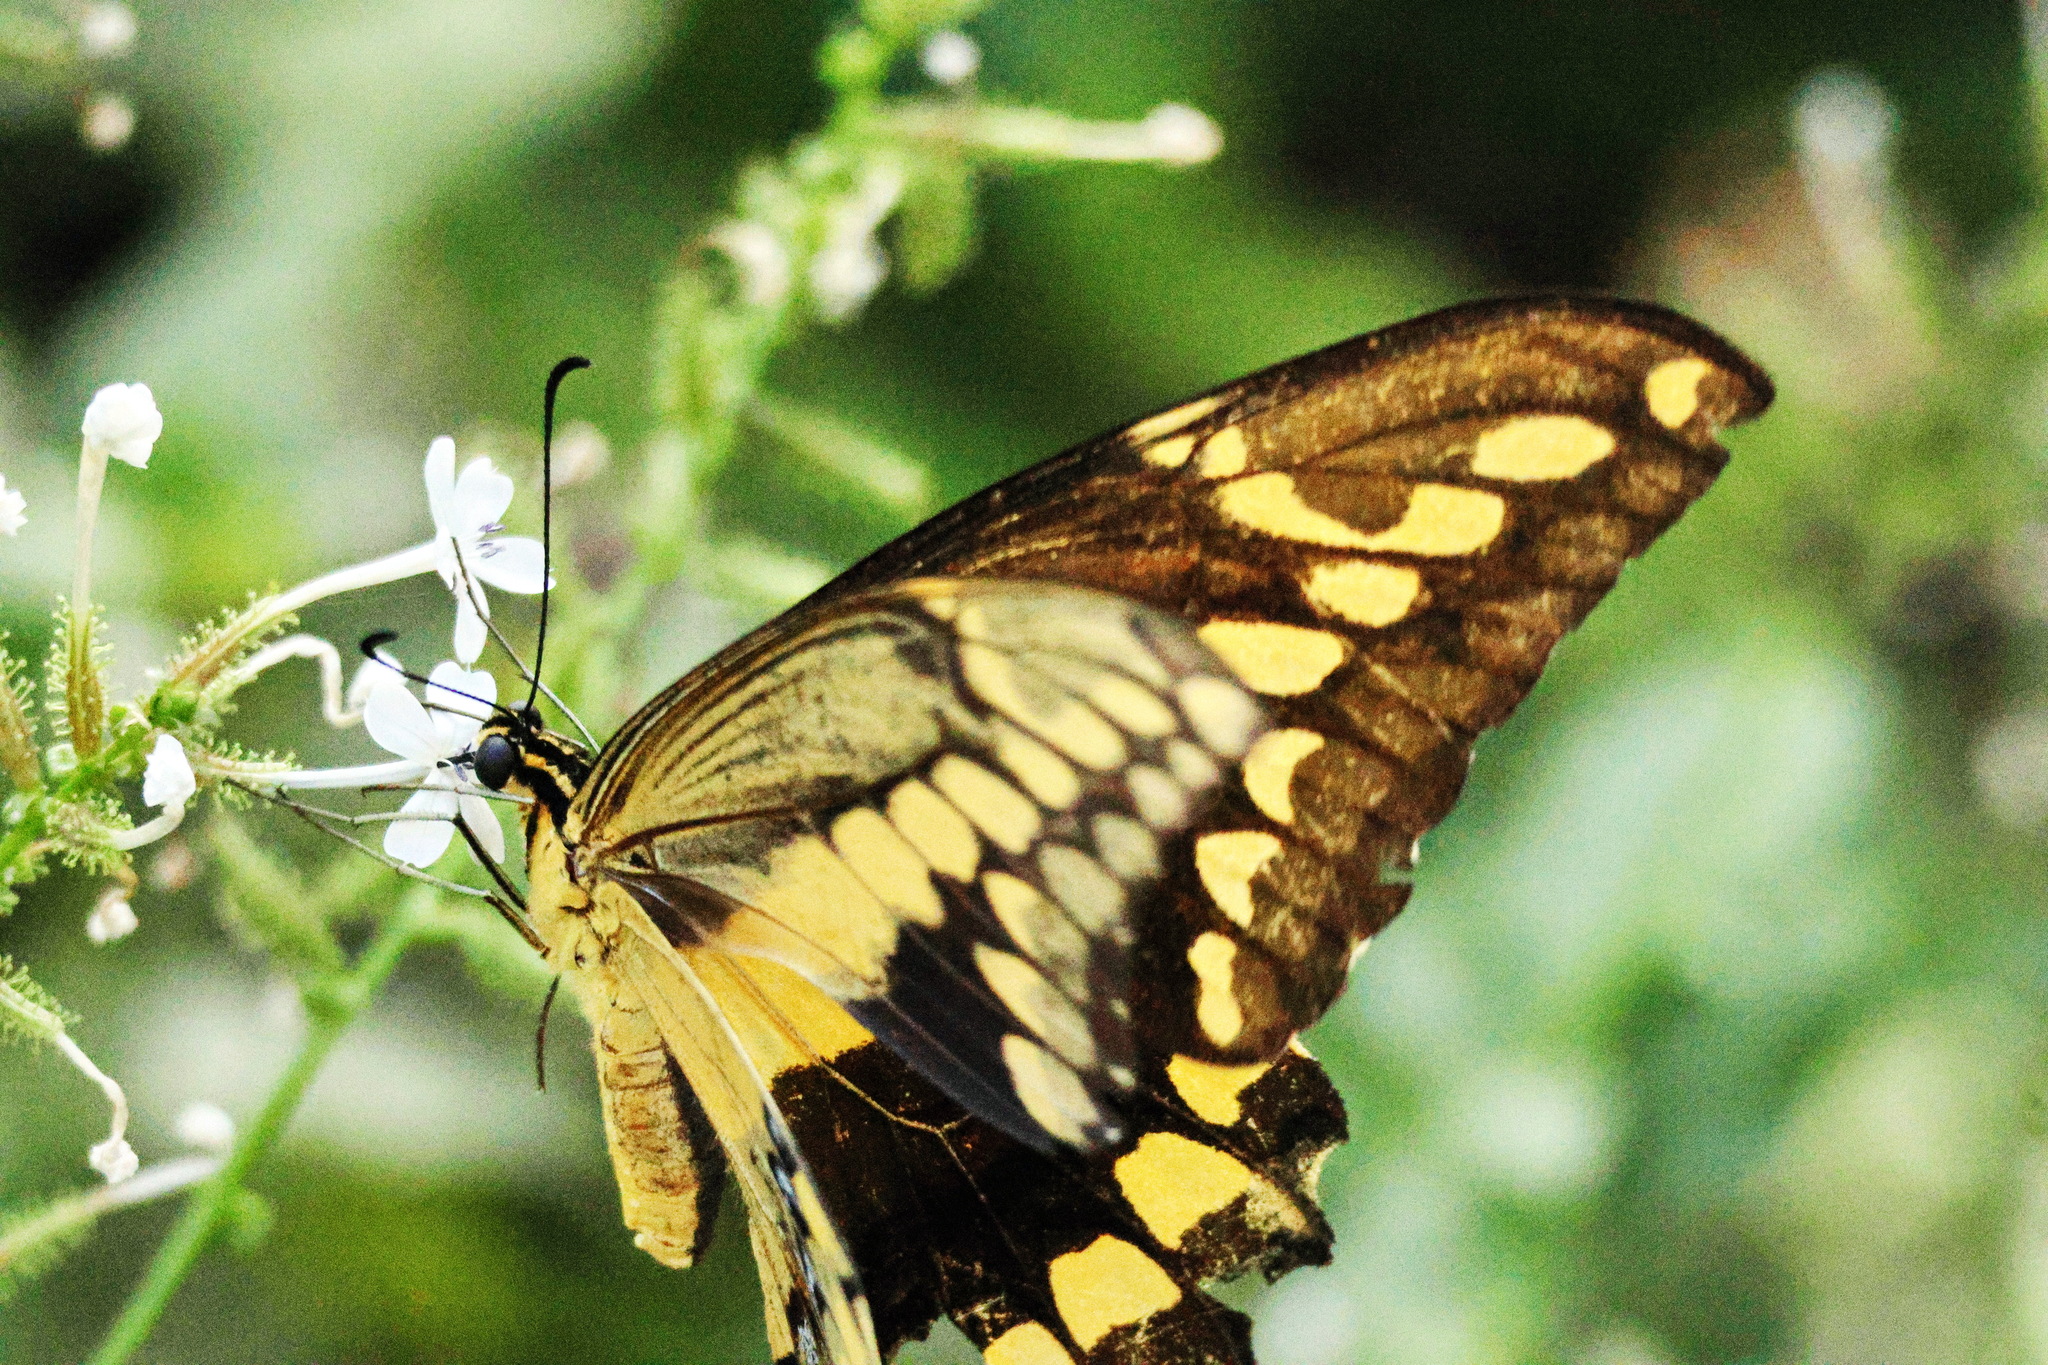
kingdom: Animalia
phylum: Arthropoda
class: Insecta
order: Lepidoptera
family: Papilionidae
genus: Papilio
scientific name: Papilio rumiko
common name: Western giant swallowtail
